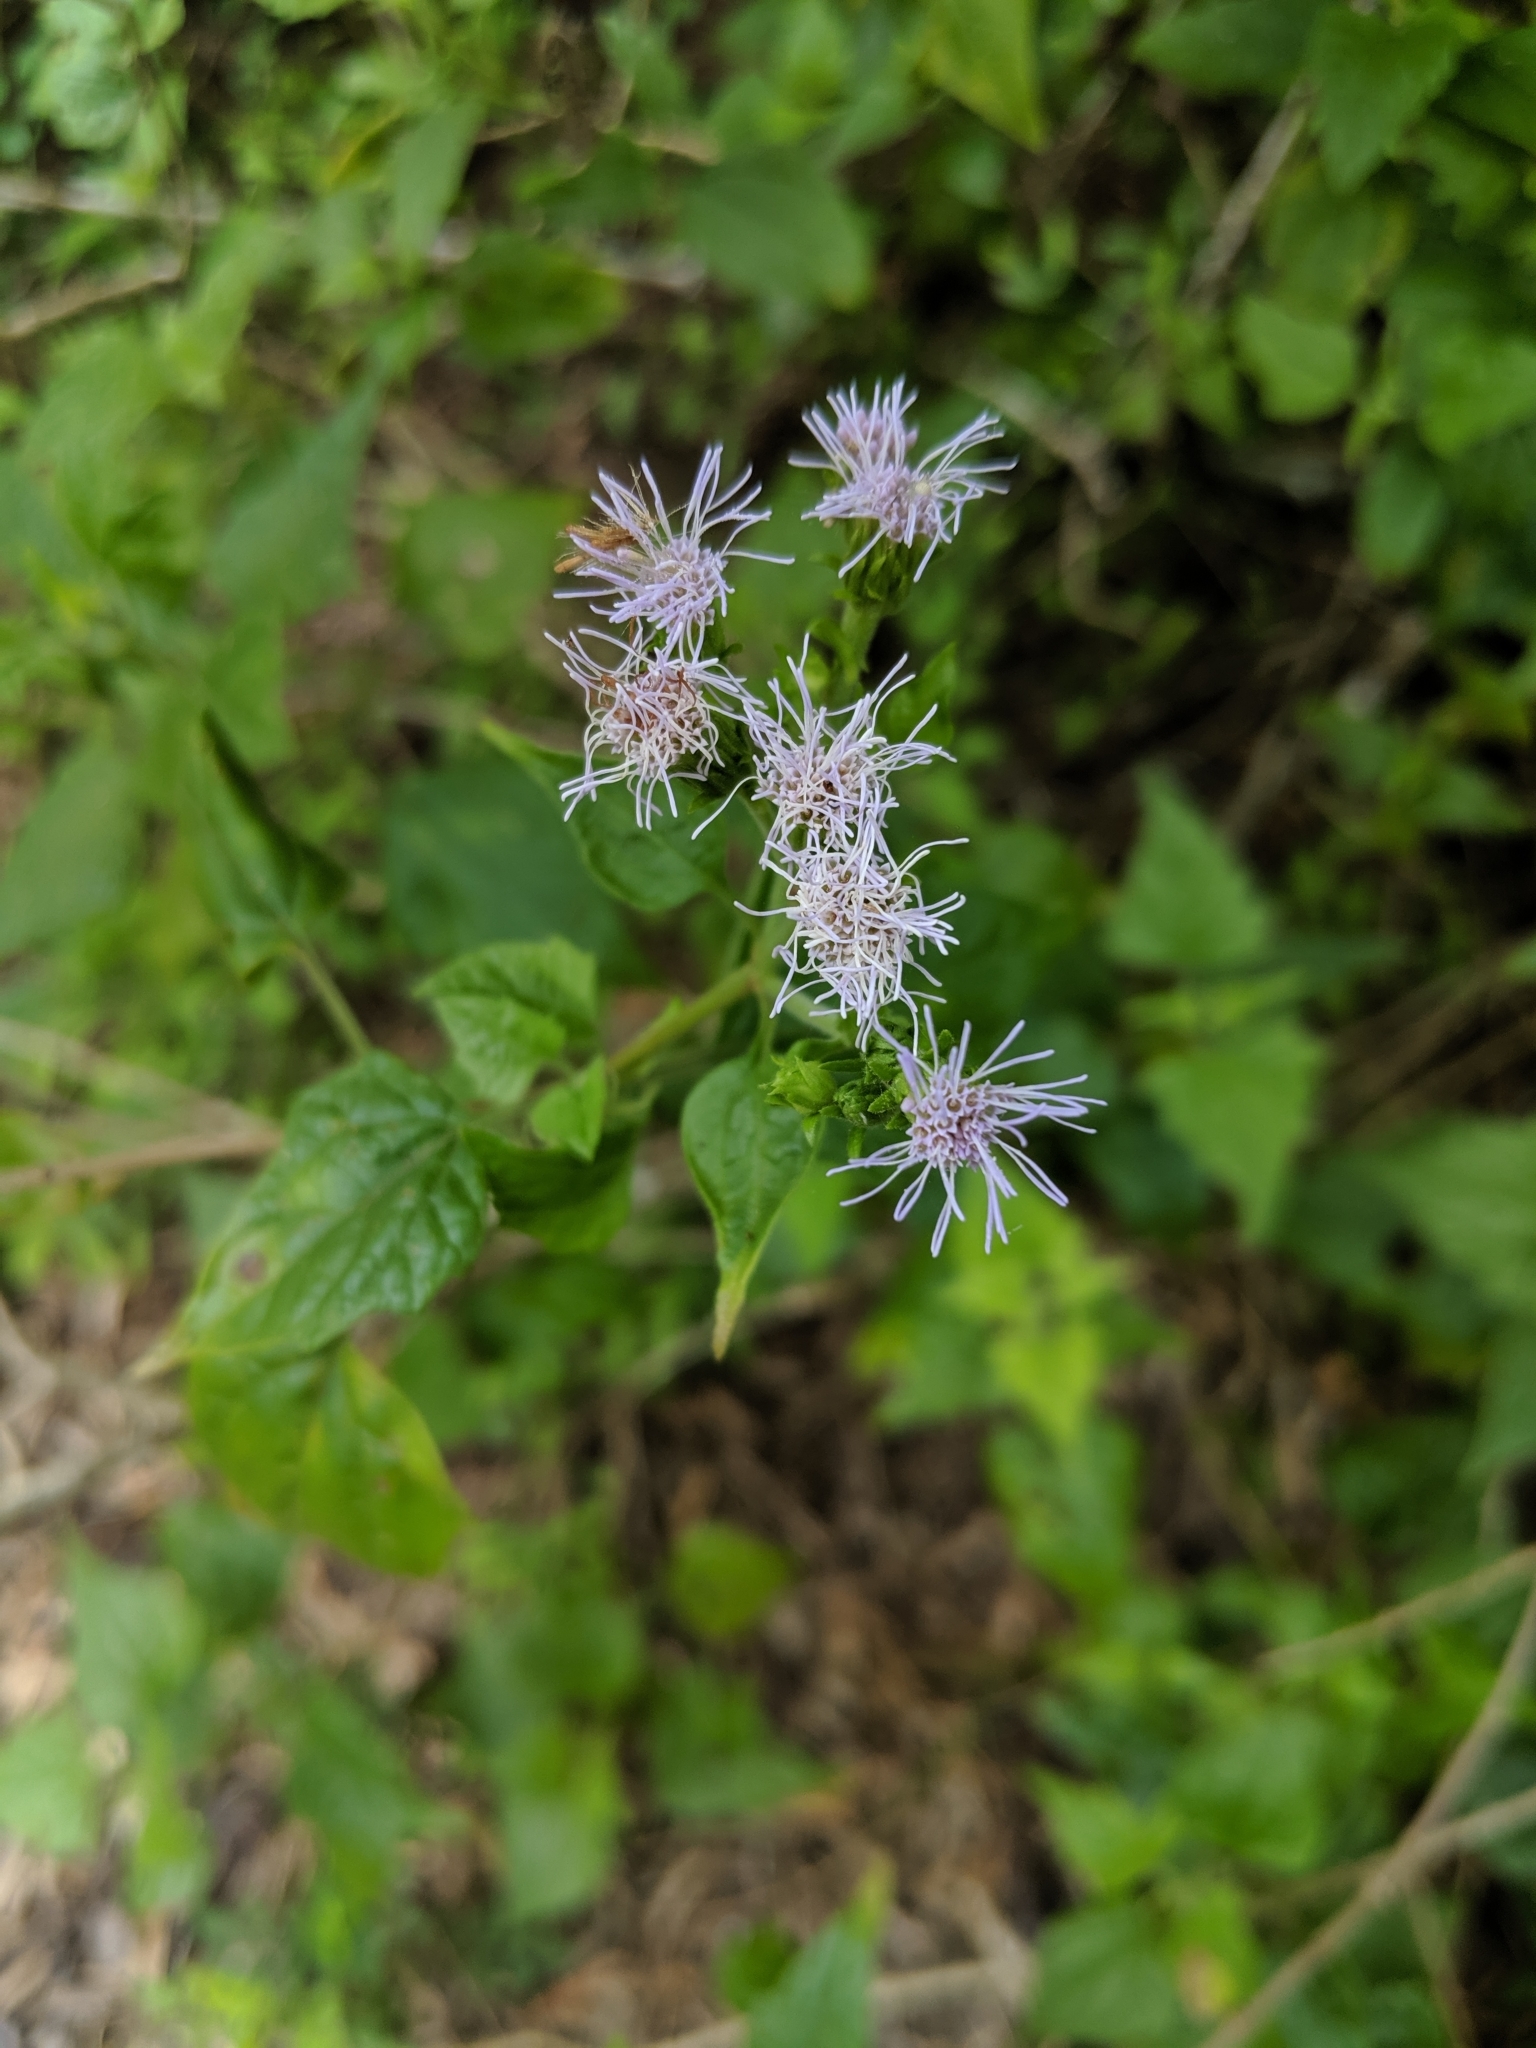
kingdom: Plantae
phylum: Tracheophyta
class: Magnoliopsida
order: Asterales
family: Asteraceae
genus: Tamaulipa
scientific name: Tamaulipa azurea
